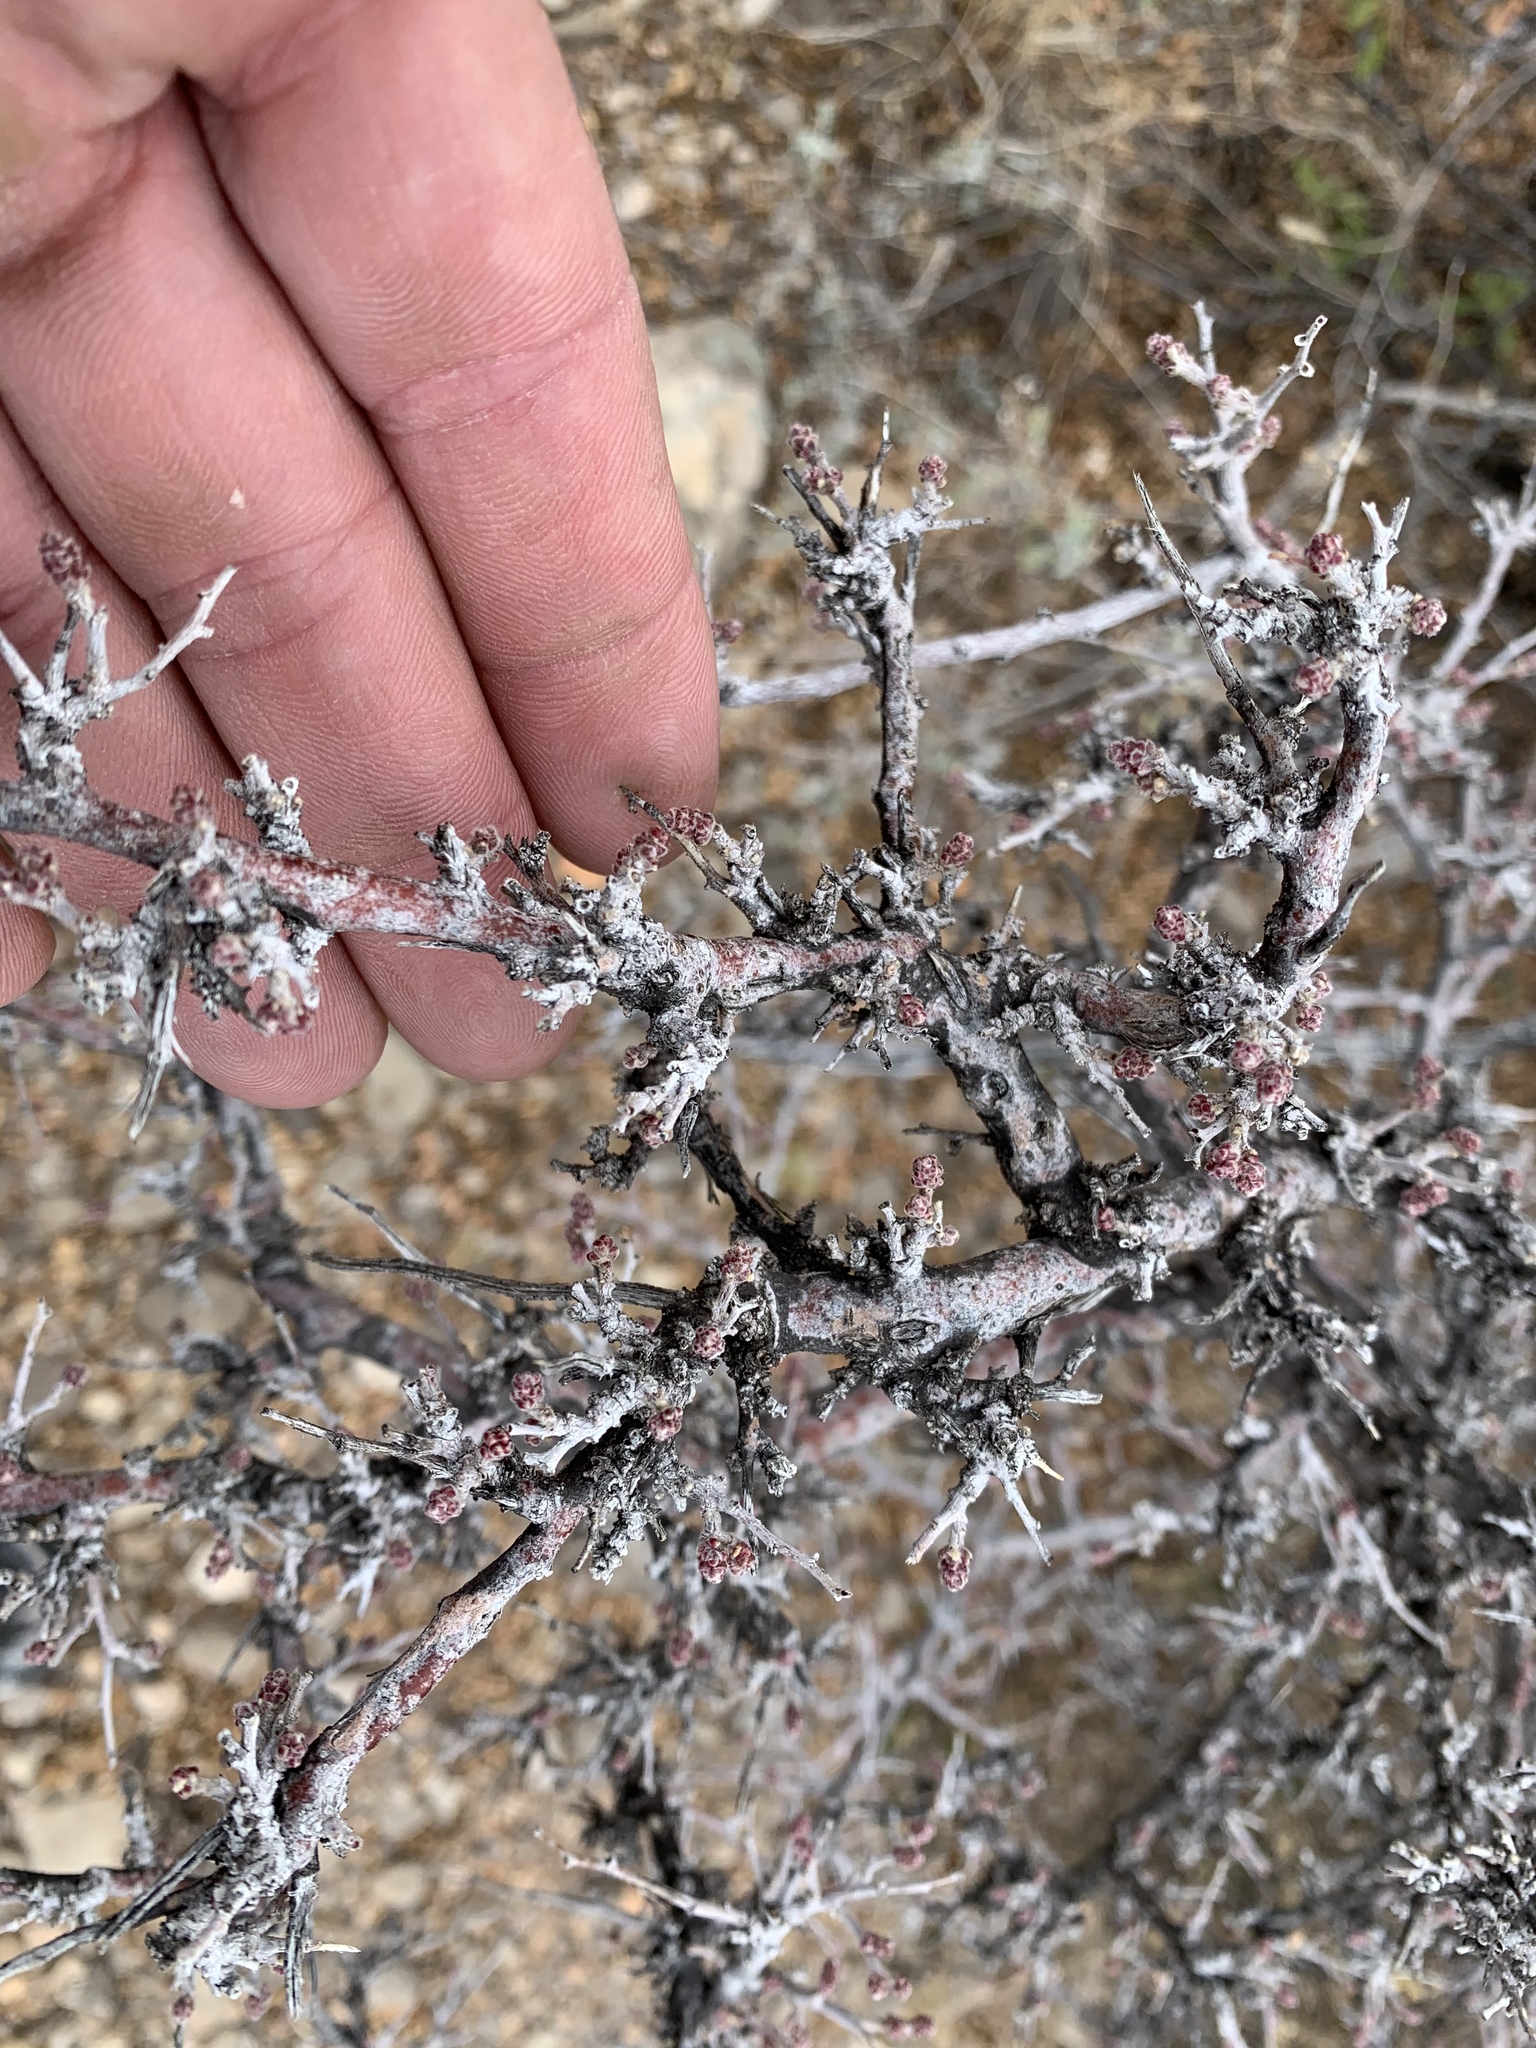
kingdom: Plantae
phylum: Tracheophyta
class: Magnoliopsida
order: Sapindales
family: Anacardiaceae
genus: Rhus
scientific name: Rhus microphylla
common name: Desert sumac
